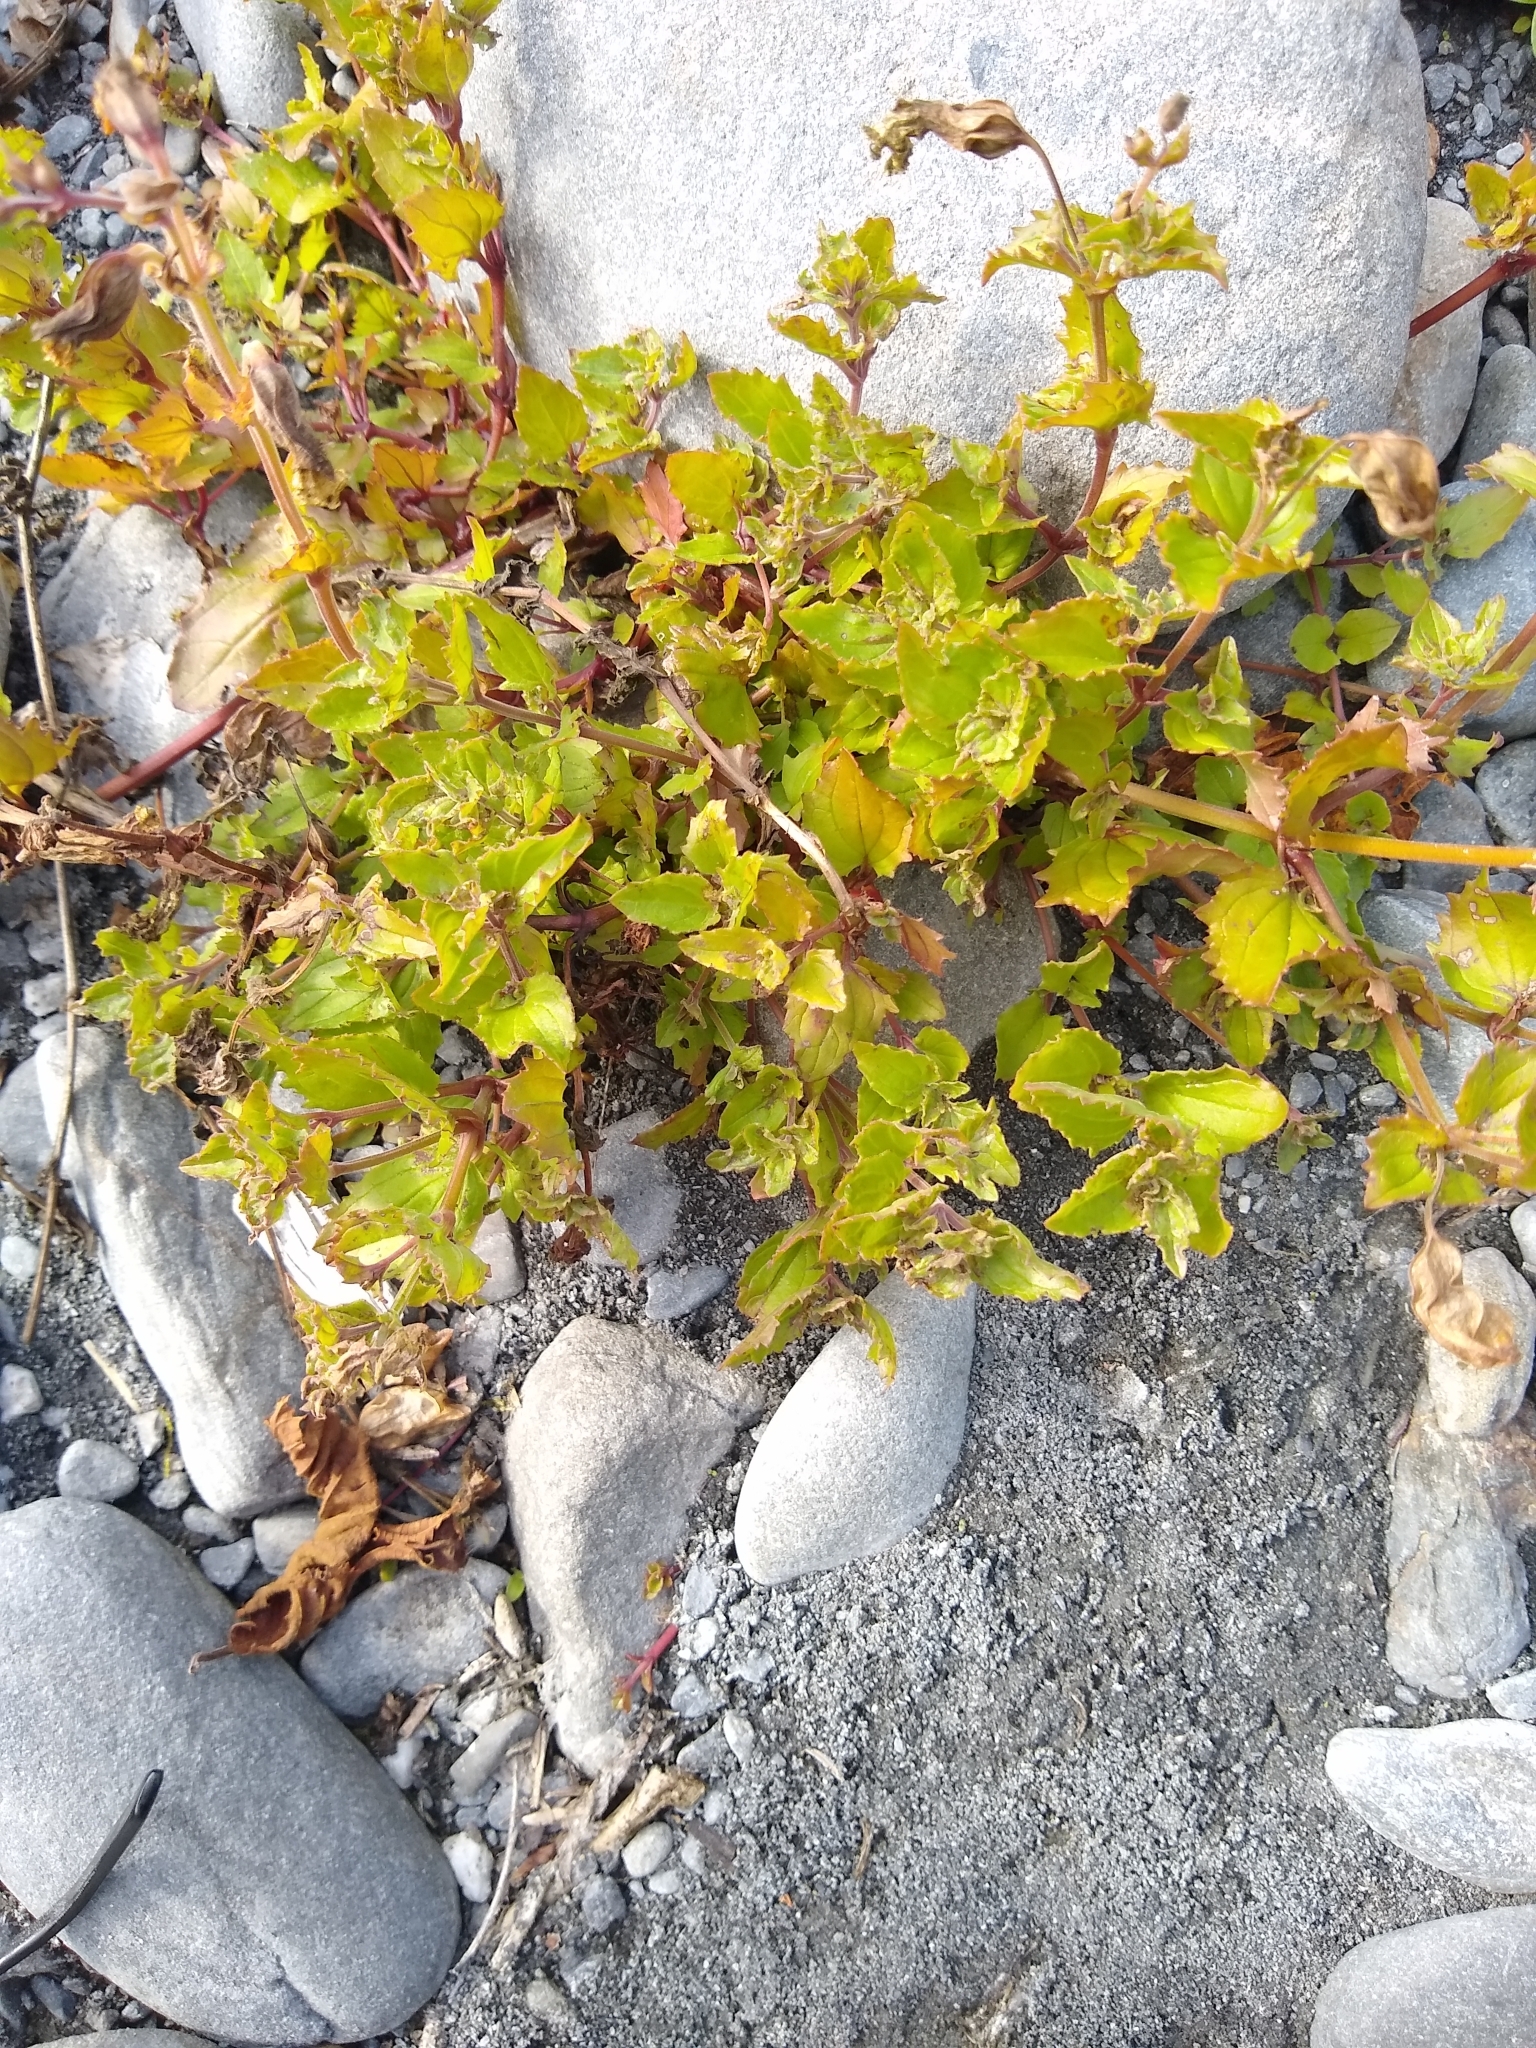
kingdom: Plantae
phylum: Tracheophyta
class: Magnoliopsida
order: Lamiales
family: Phrymaceae
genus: Erythranthe
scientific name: Erythranthe decora
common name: Mannered monkeyflower
